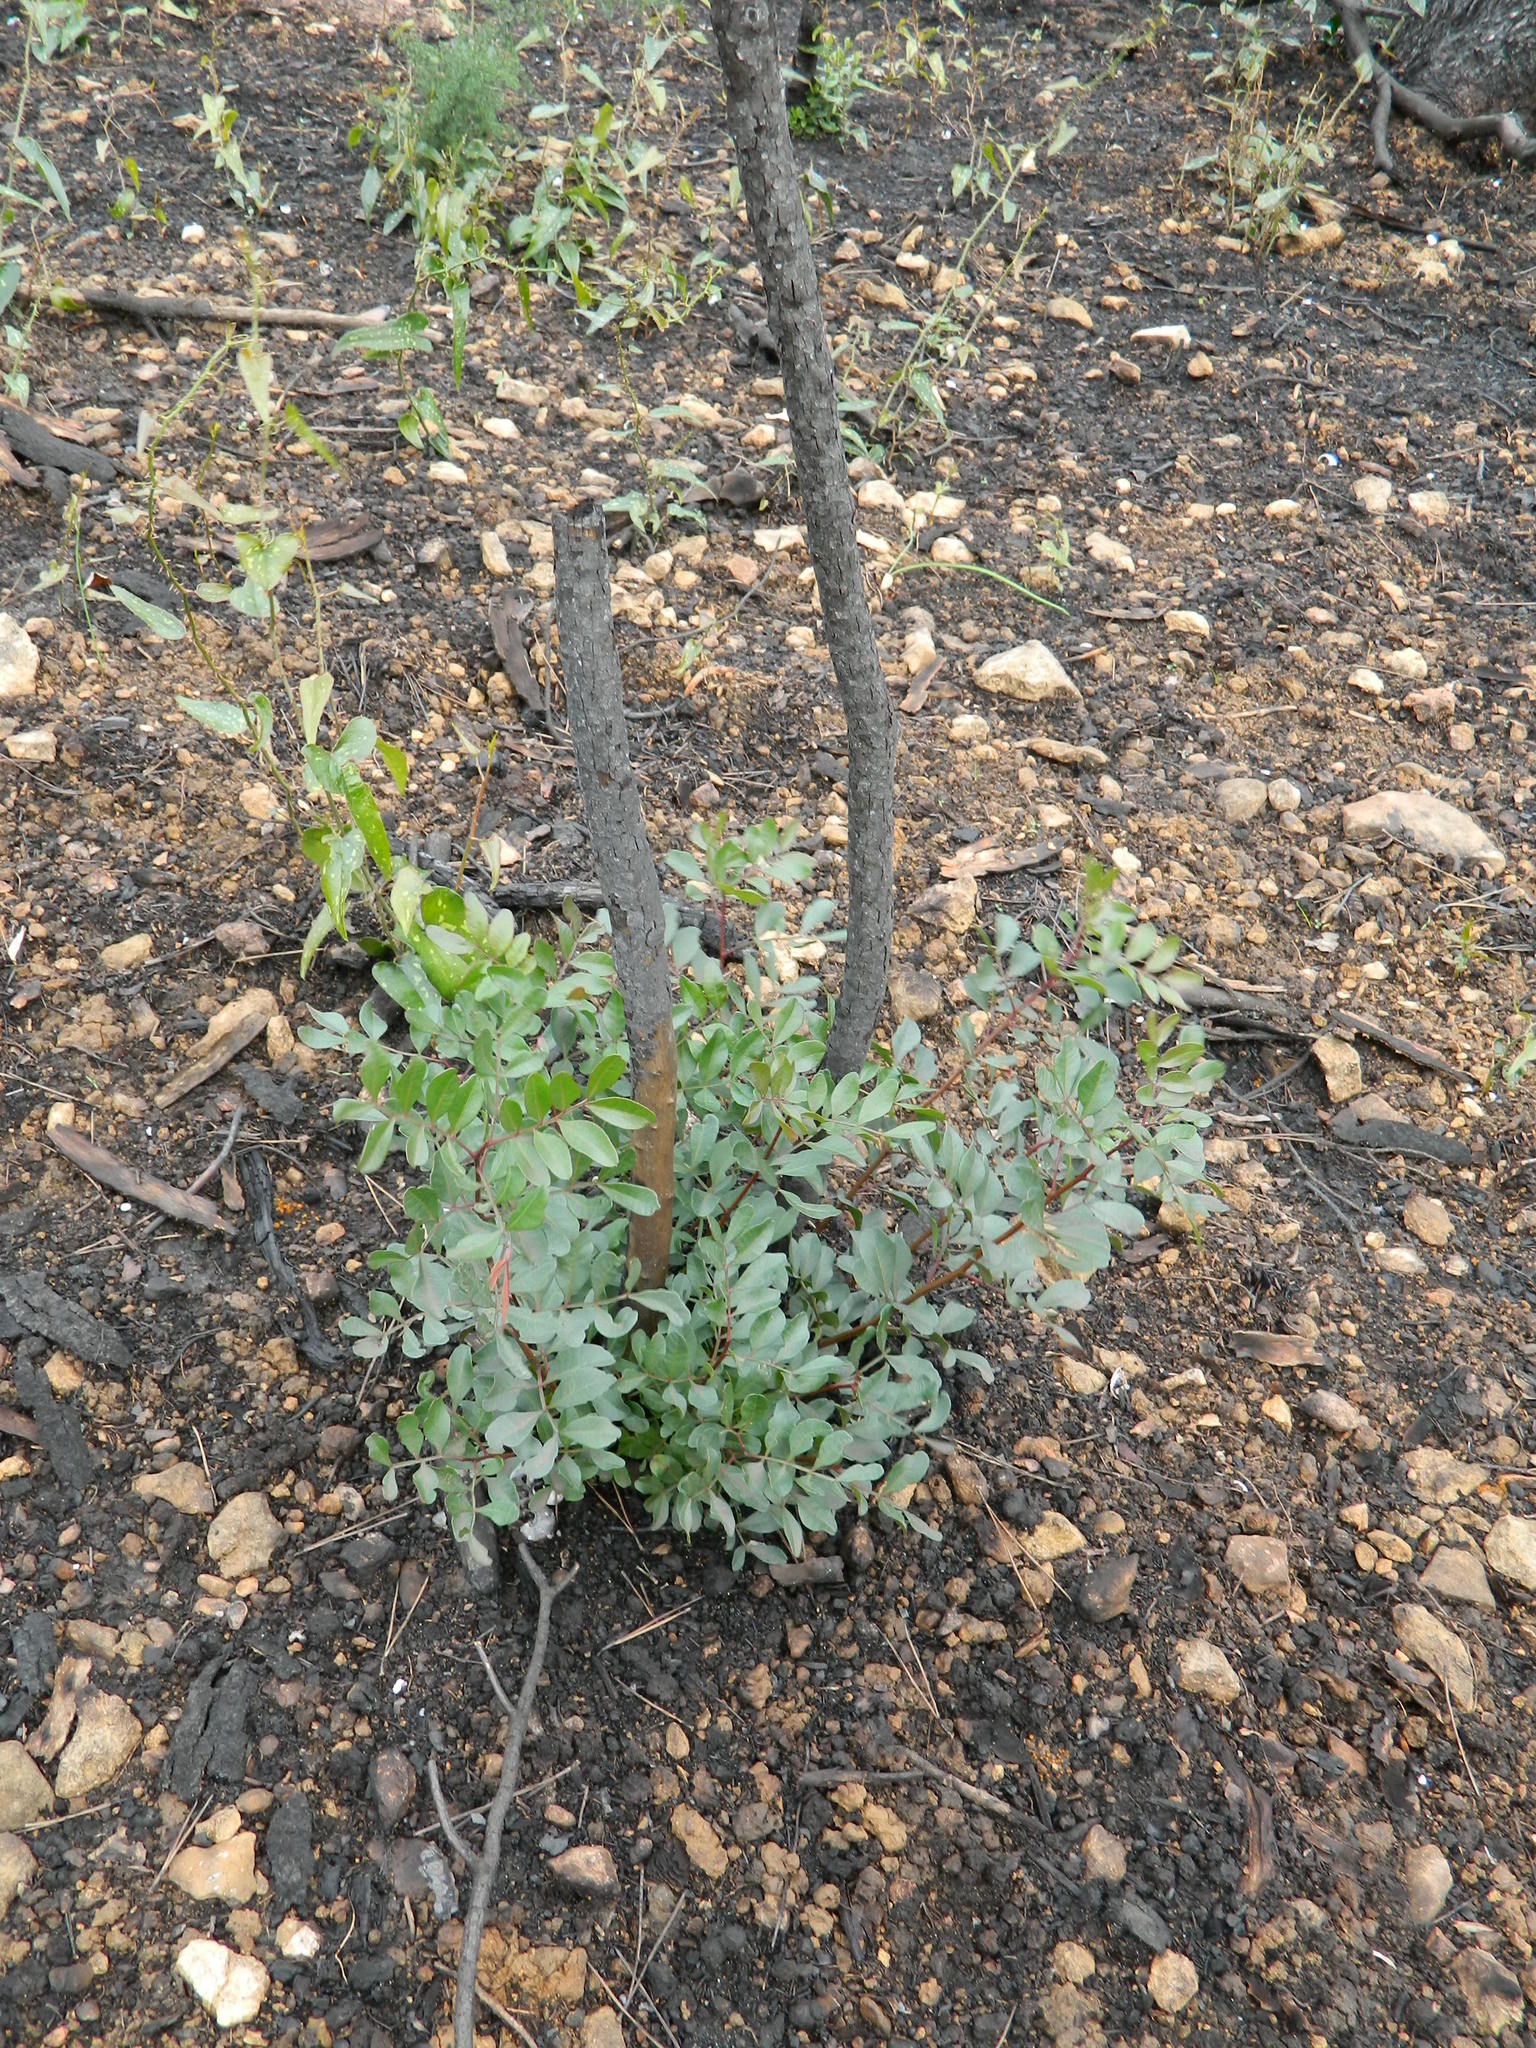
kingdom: Plantae
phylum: Tracheophyta
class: Magnoliopsida
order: Sapindales
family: Anacardiaceae
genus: Pistacia
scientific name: Pistacia lentiscus
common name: Lentisk
